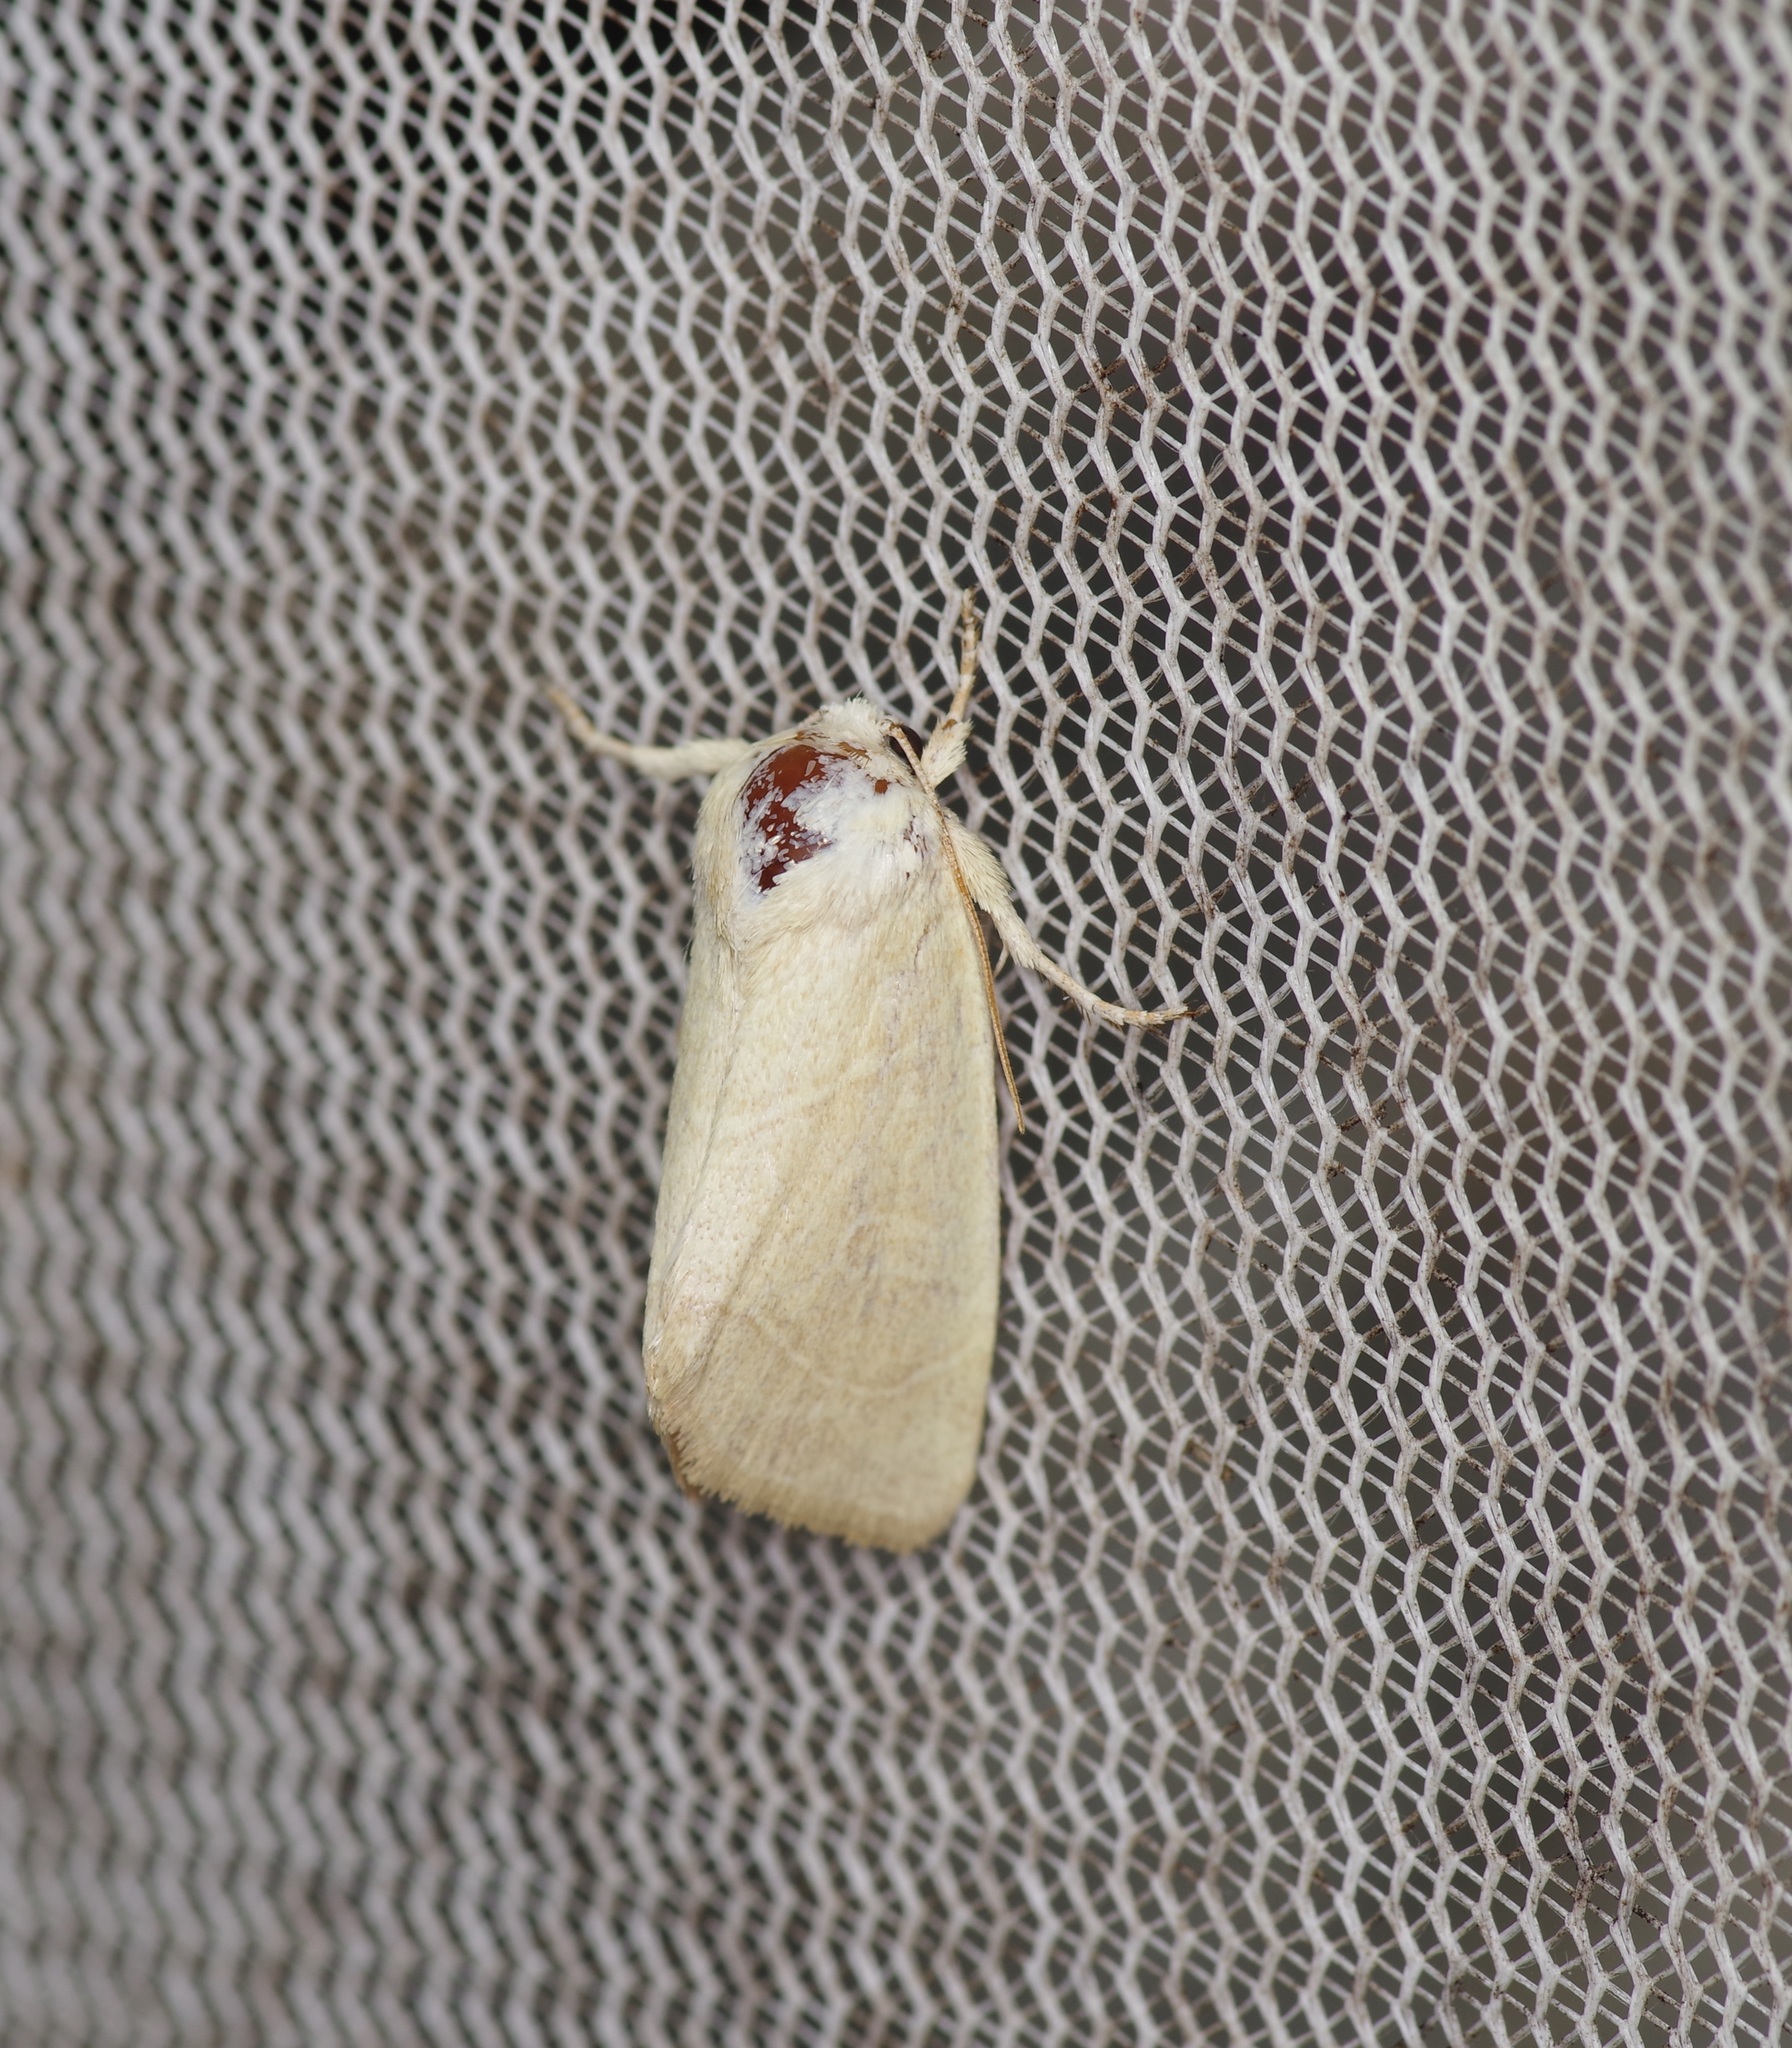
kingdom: Animalia
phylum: Arthropoda
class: Insecta
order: Lepidoptera
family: Noctuidae
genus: Cosmia
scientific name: Cosmia calami
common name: American dun-bar moth
